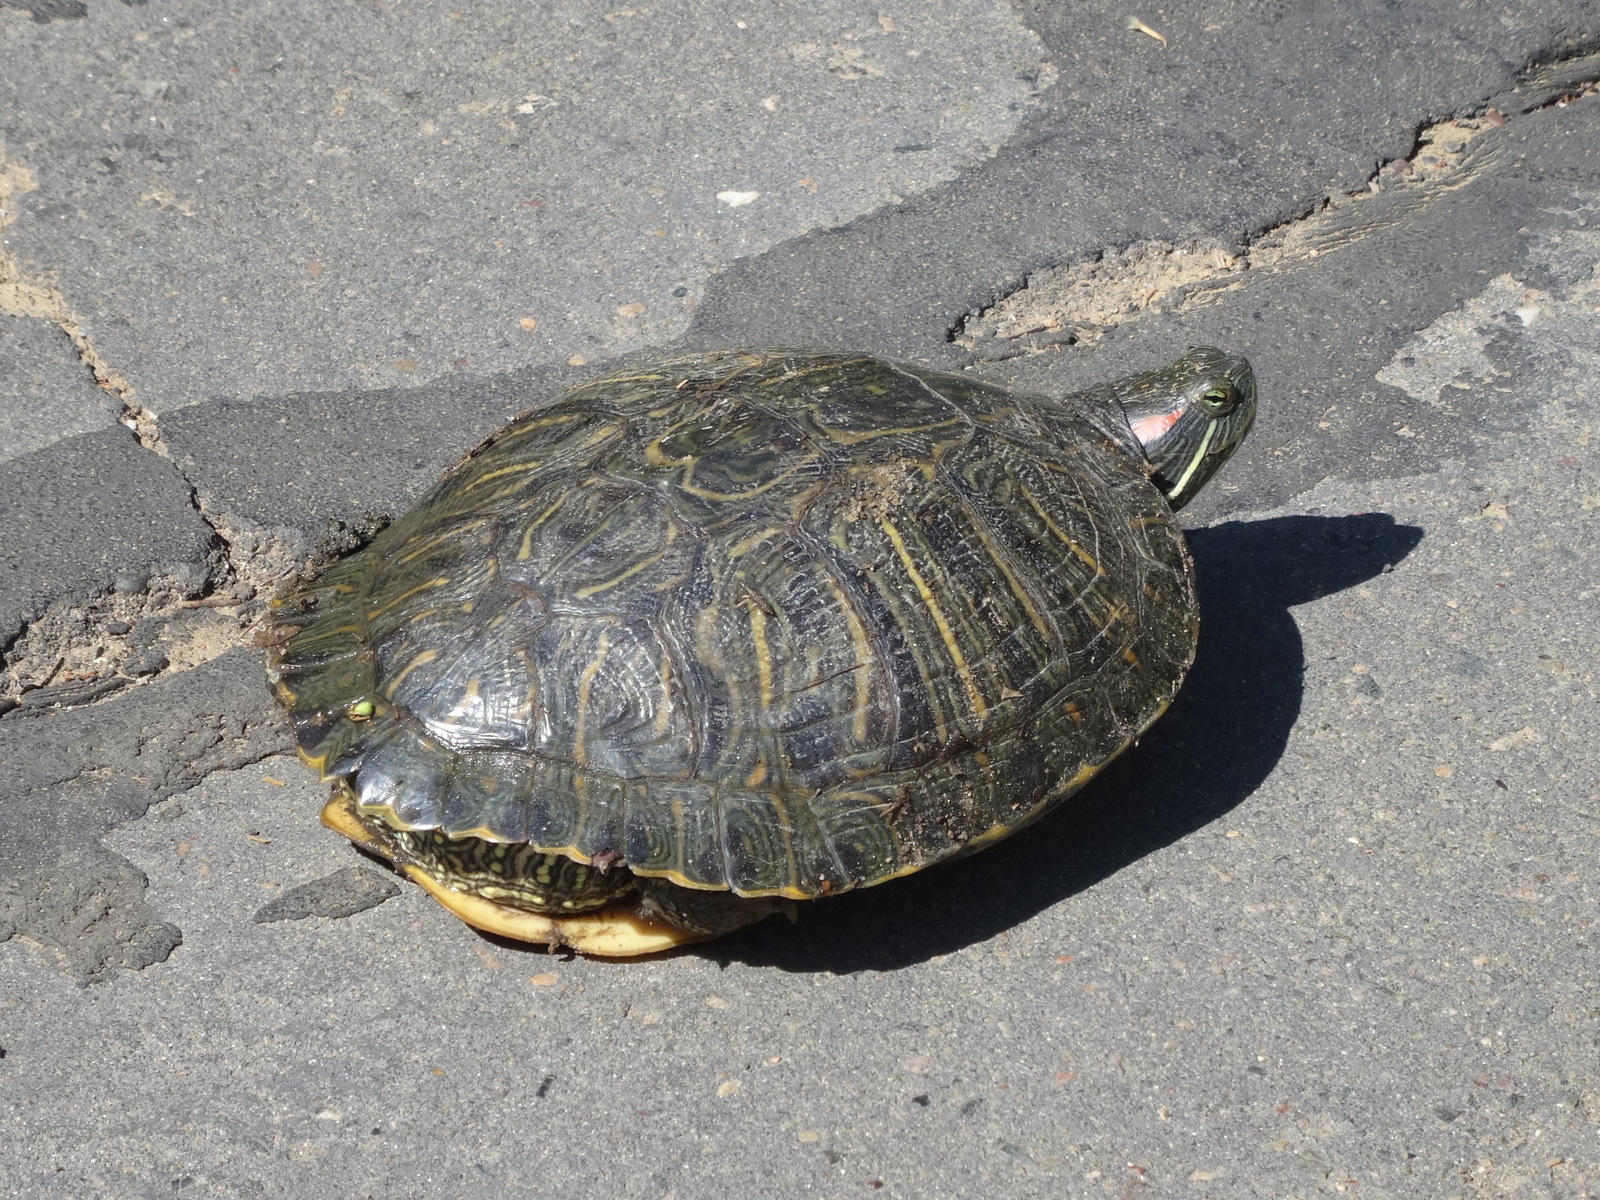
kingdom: Animalia
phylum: Chordata
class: Testudines
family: Emydidae
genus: Trachemys
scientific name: Trachemys scripta
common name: Slider
